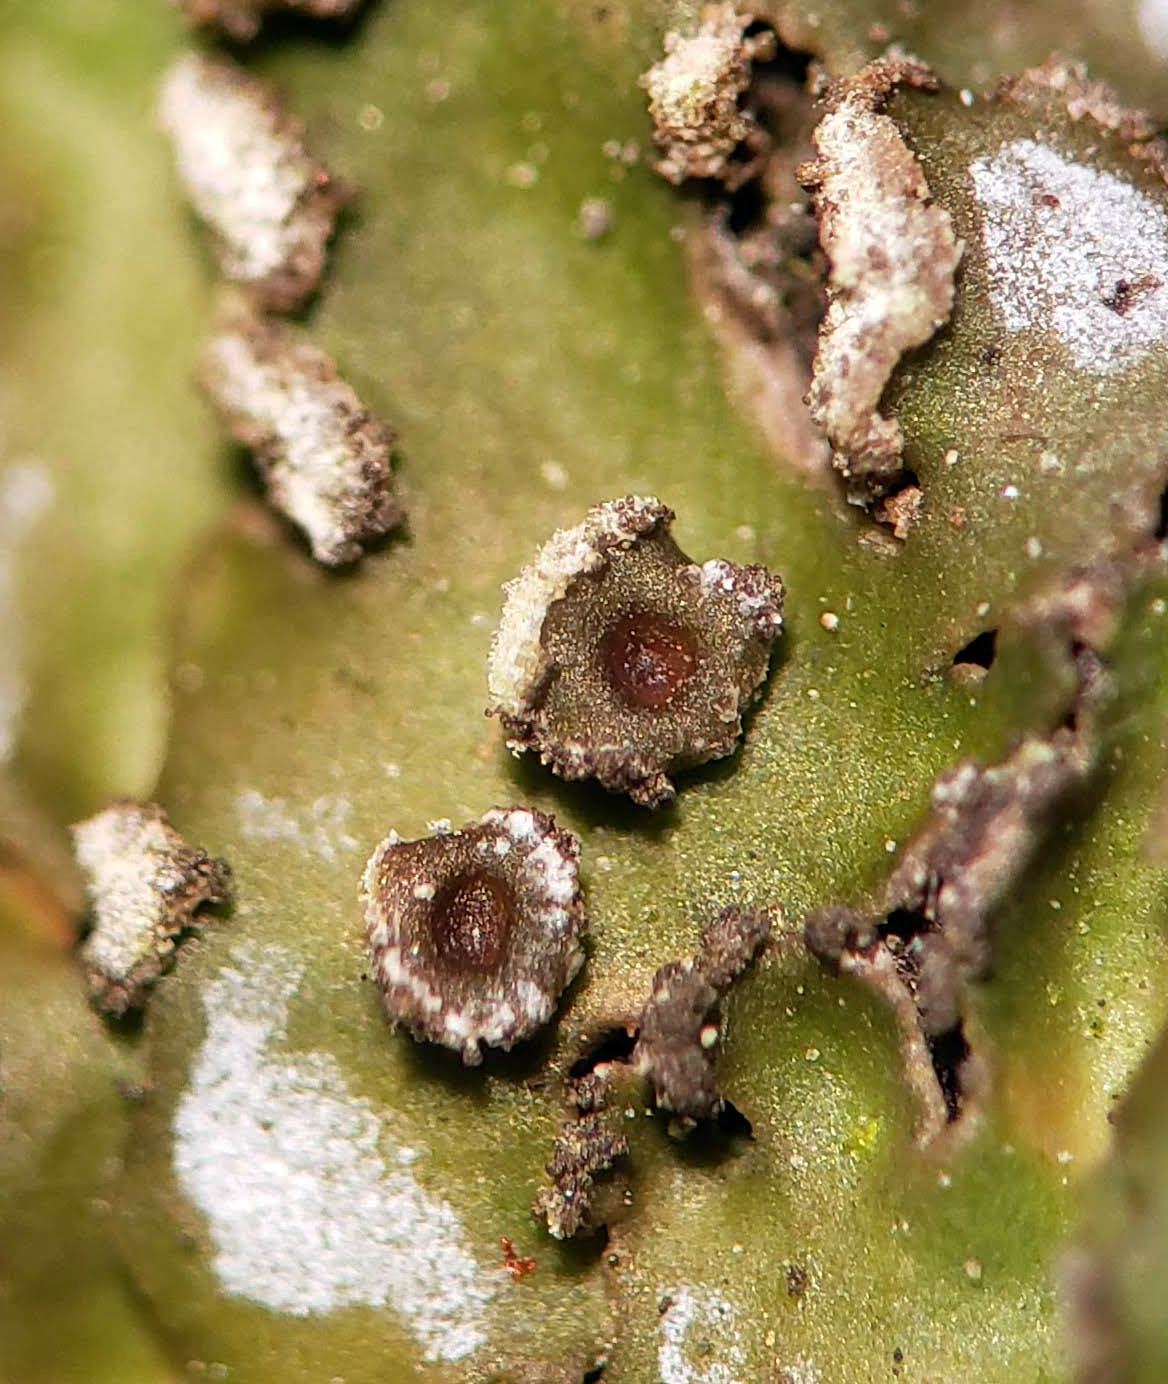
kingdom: Fungi
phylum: Ascomycota
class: Lecanoromycetes
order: Caliciales
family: Physciaceae
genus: Physconia
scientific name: Physconia detersa
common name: Bottlebrush frost lichen
